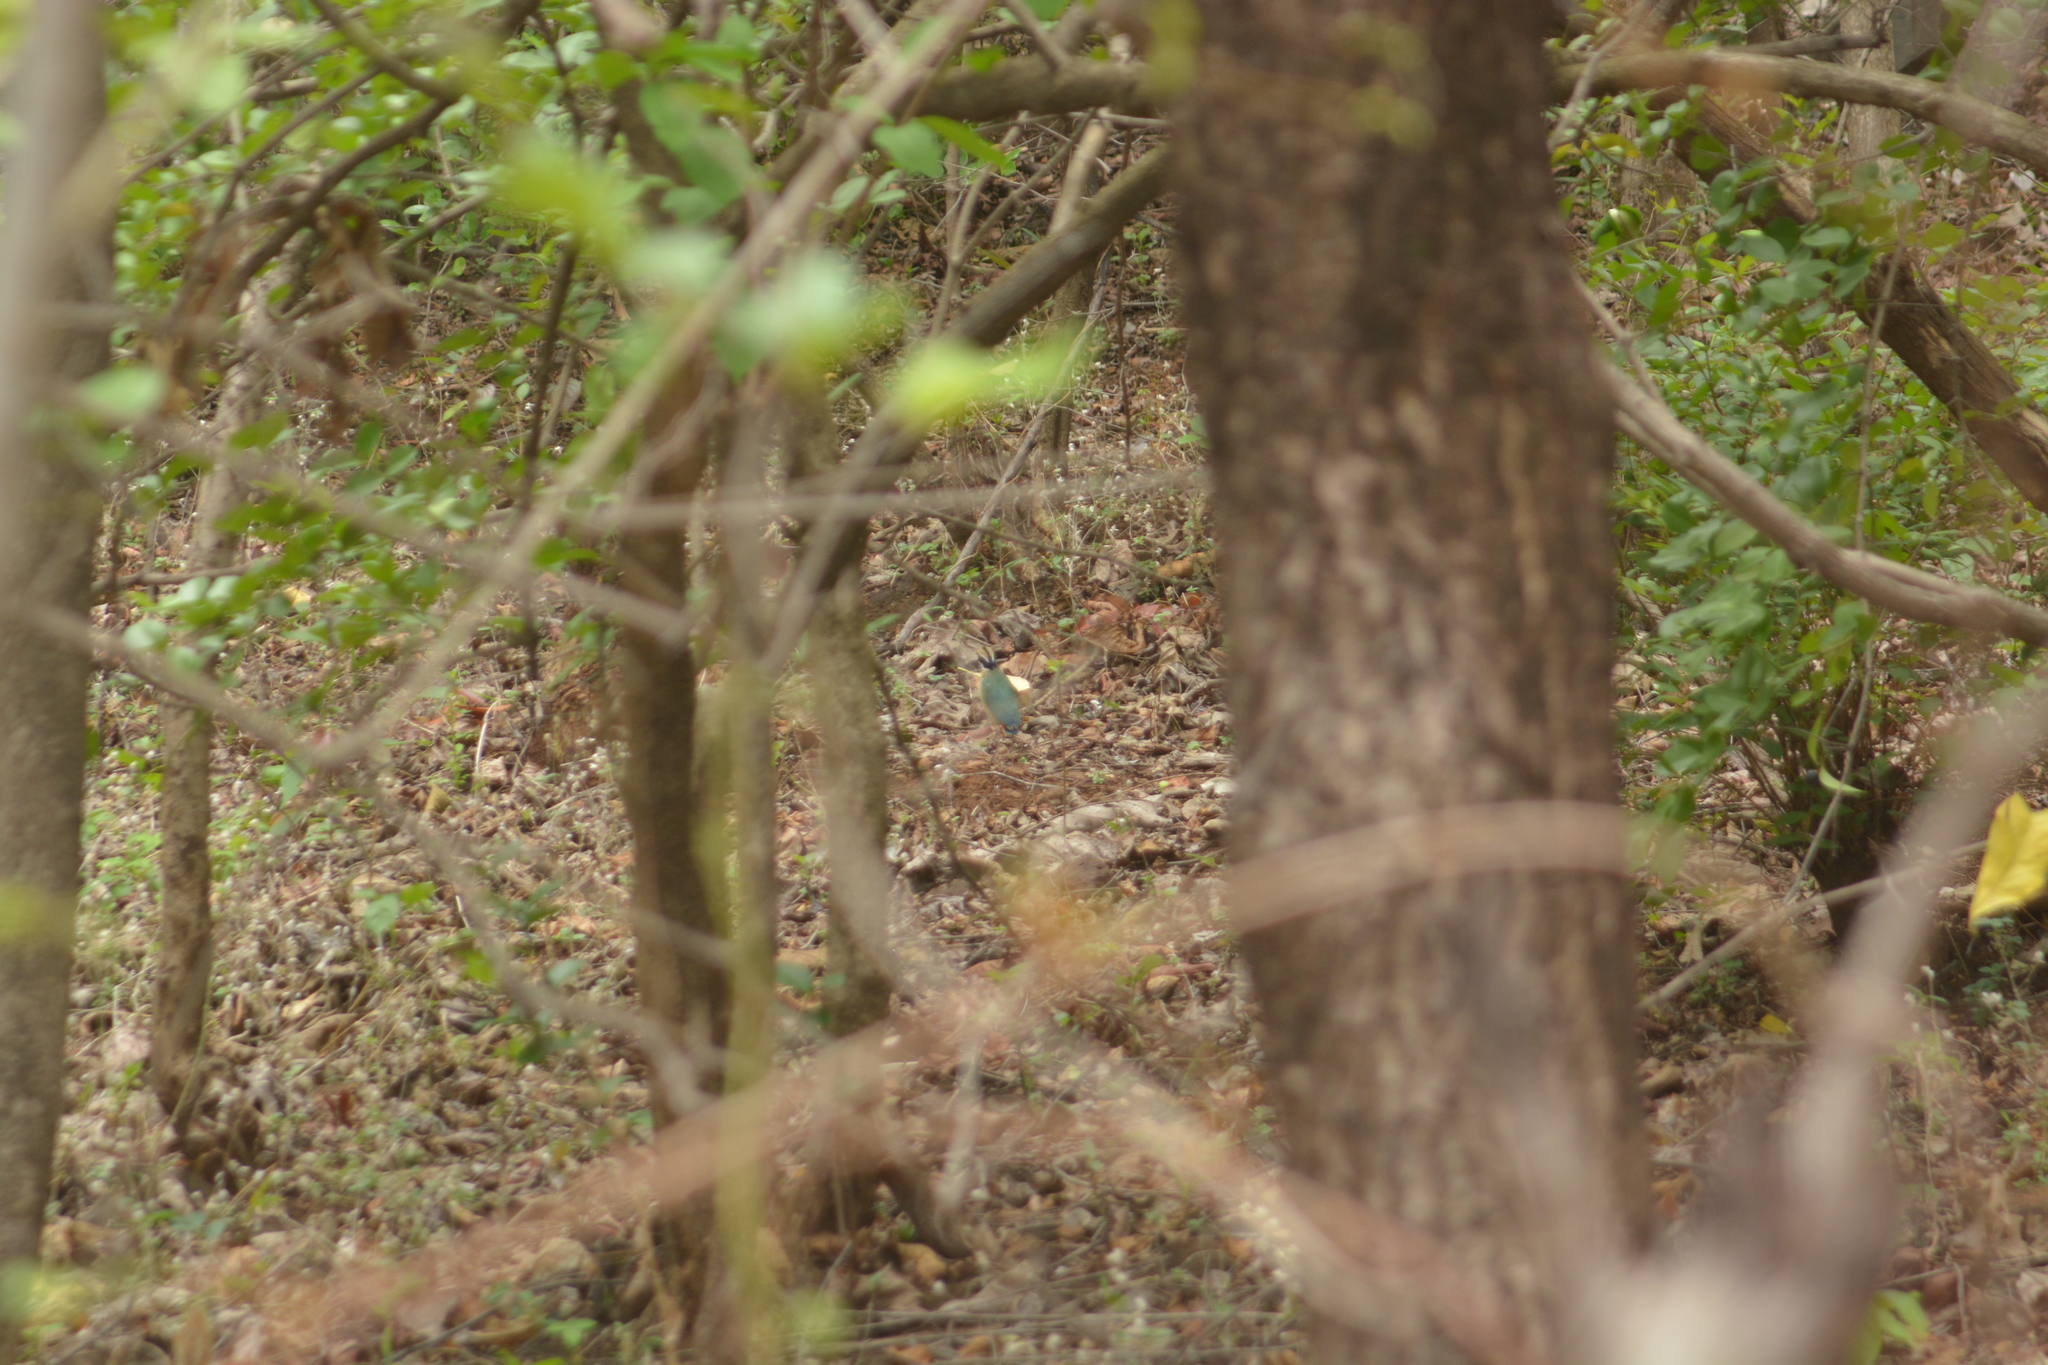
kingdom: Animalia
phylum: Chordata
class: Aves
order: Passeriformes
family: Pittidae
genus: Pitta
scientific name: Pitta brachyura
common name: Indian pitta
